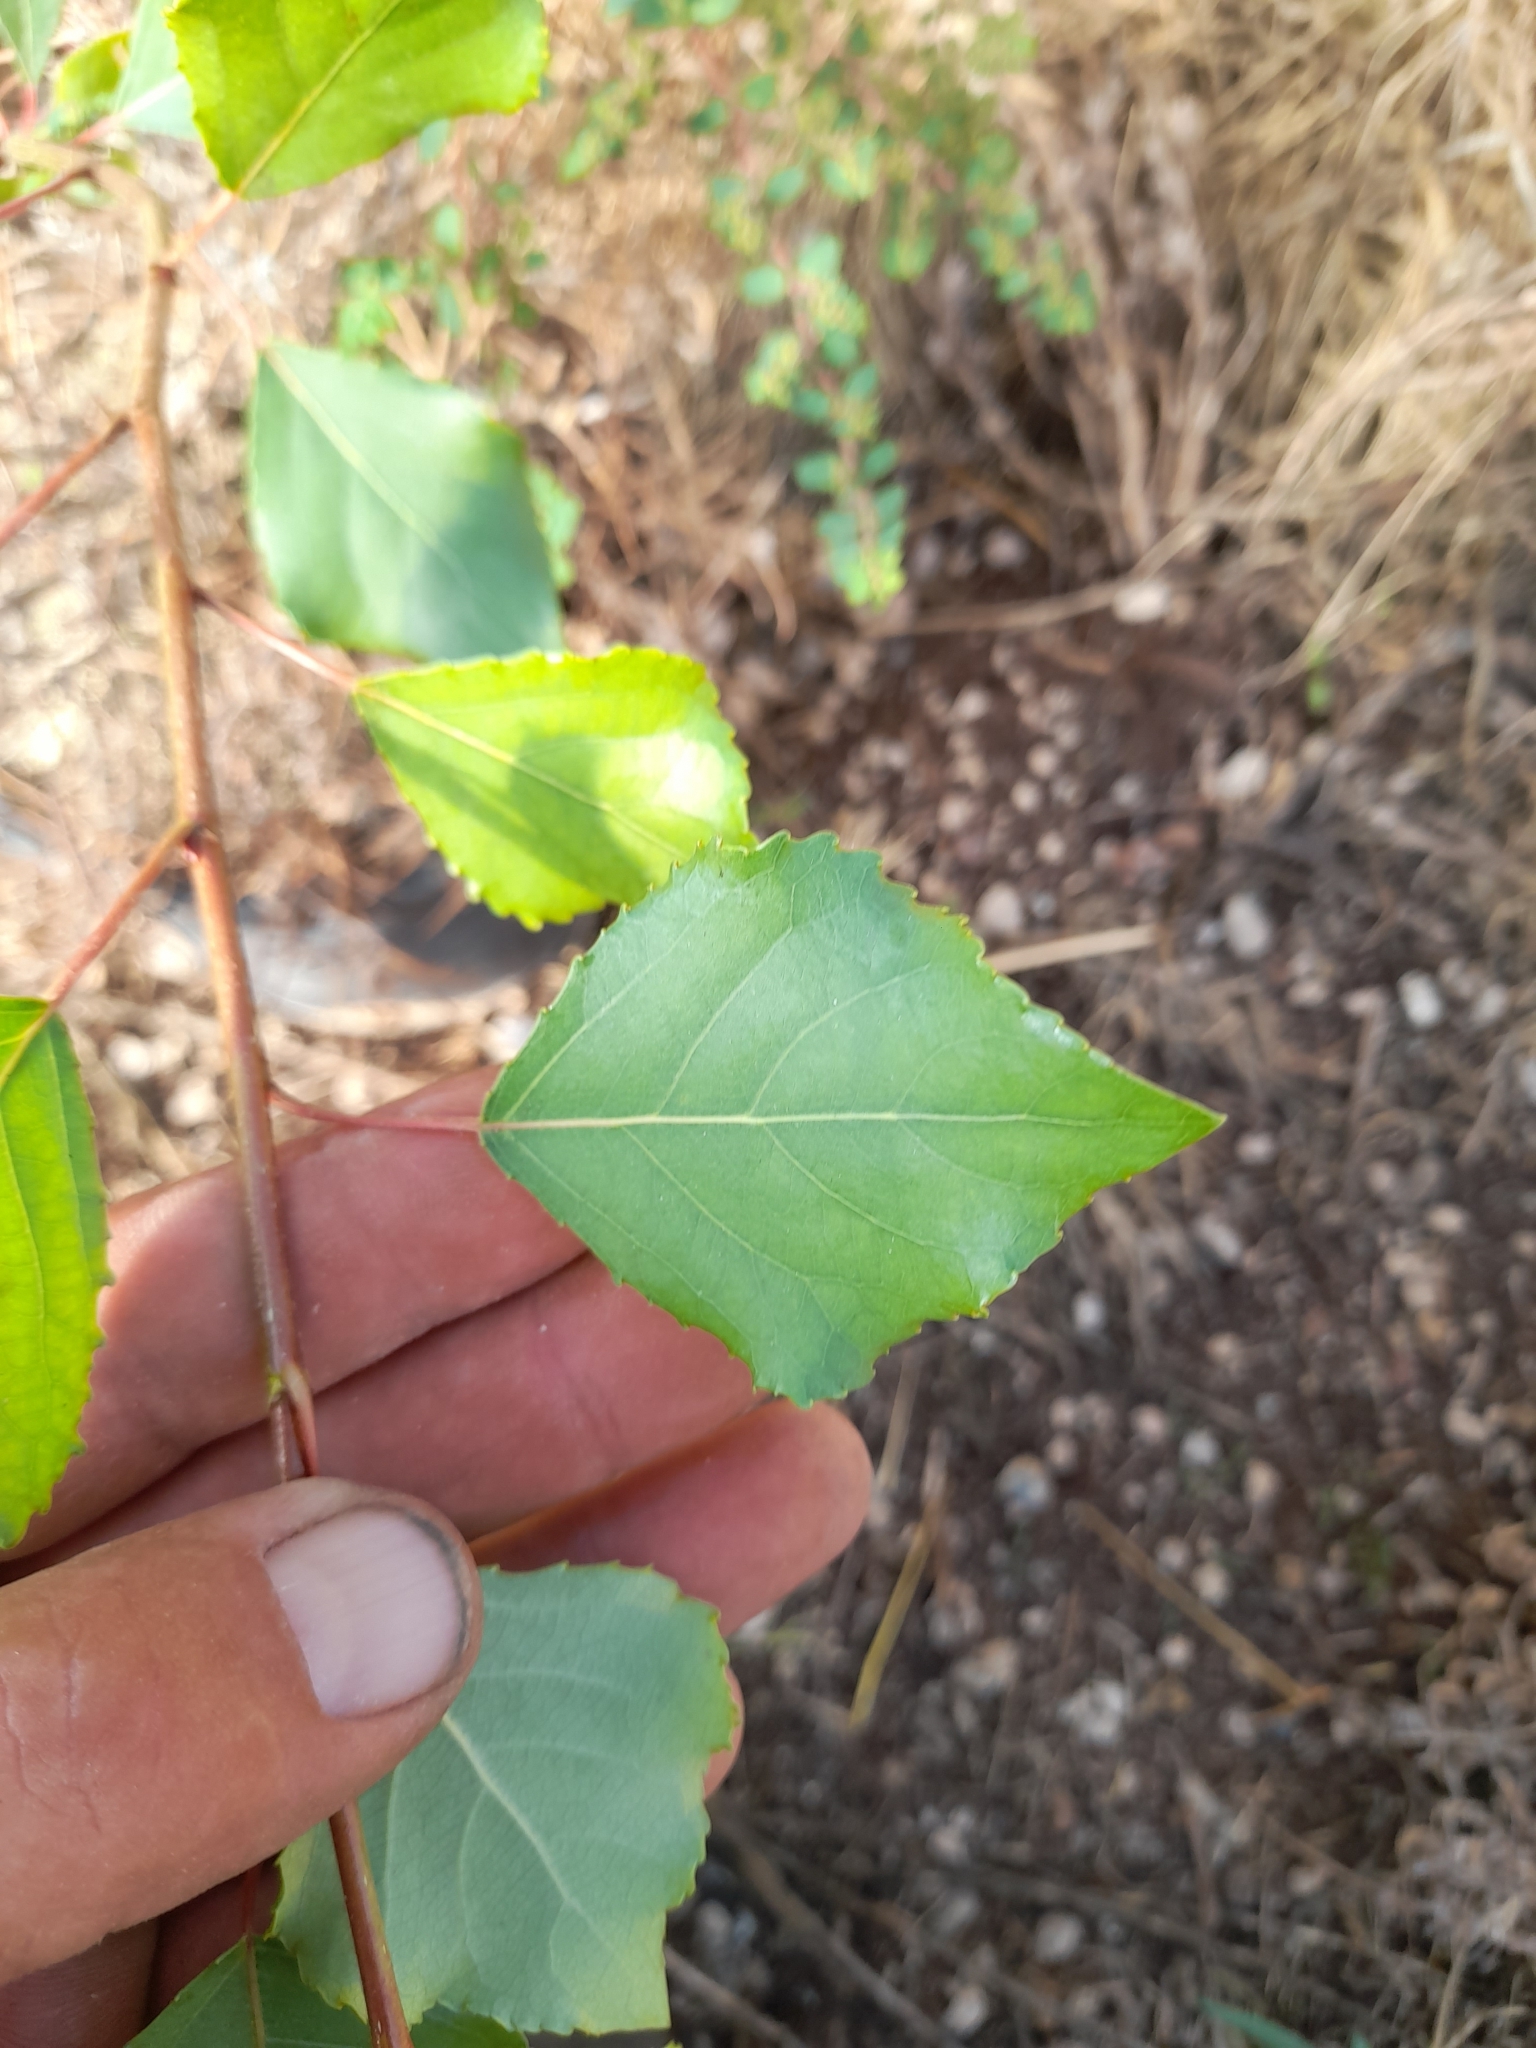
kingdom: Plantae
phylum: Tracheophyta
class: Magnoliopsida
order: Malpighiales
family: Salicaceae
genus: Populus
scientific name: Populus nigra
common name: Black poplar
